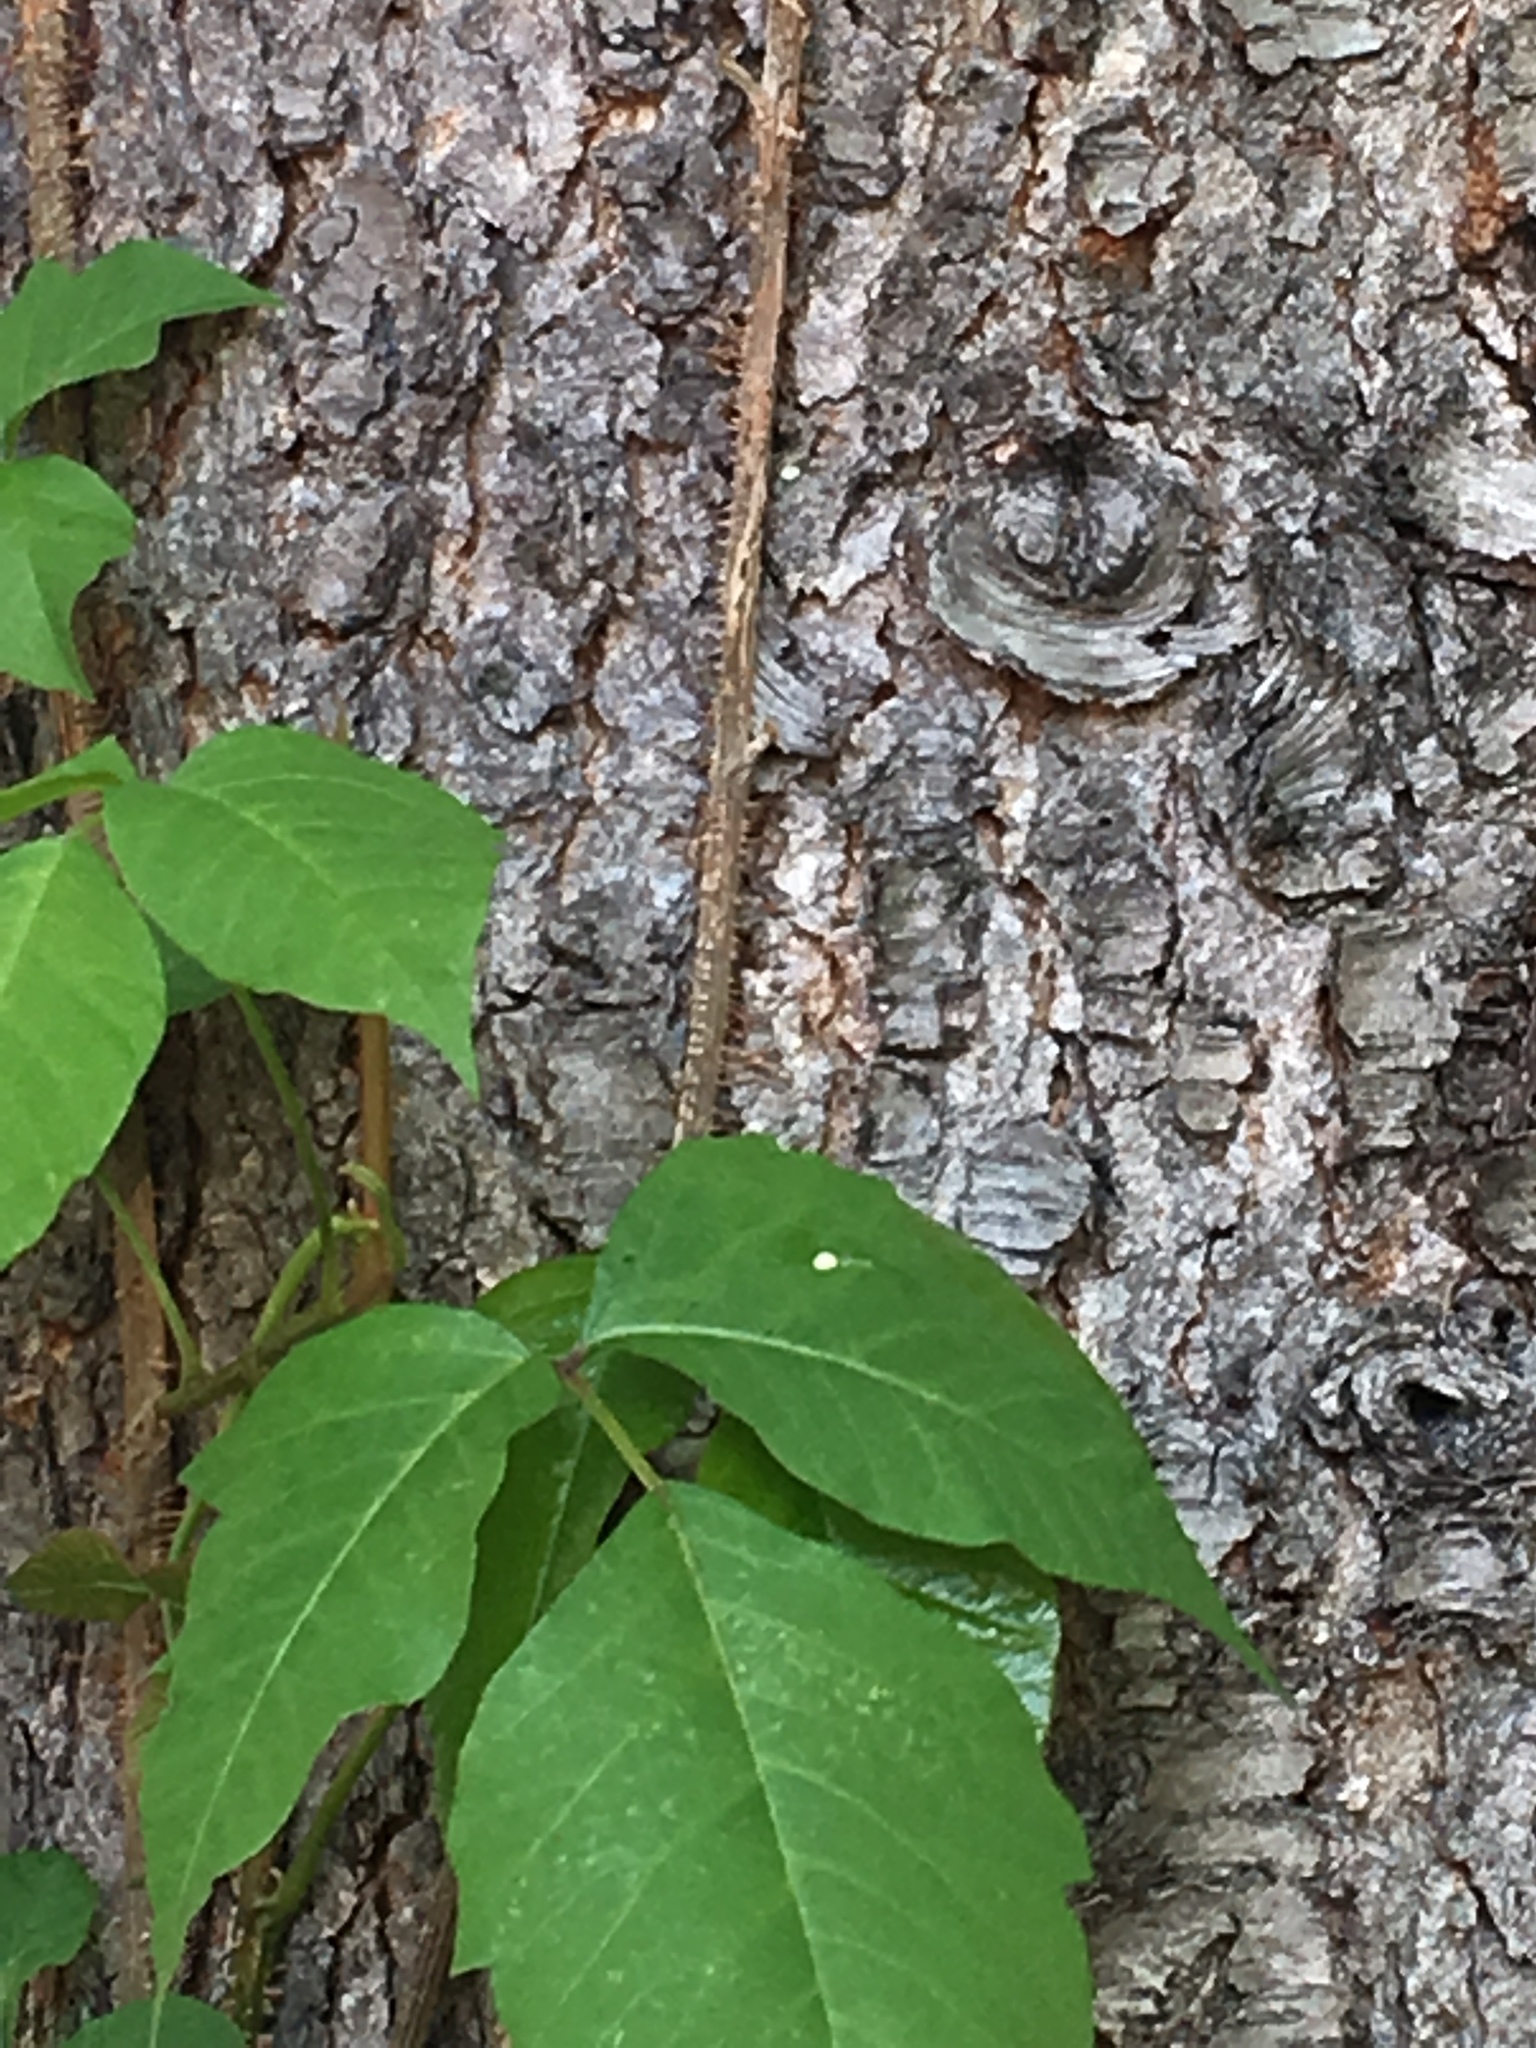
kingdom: Plantae
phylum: Tracheophyta
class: Magnoliopsida
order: Sapindales
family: Anacardiaceae
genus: Toxicodendron
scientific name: Toxicodendron radicans
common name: Poison ivy
